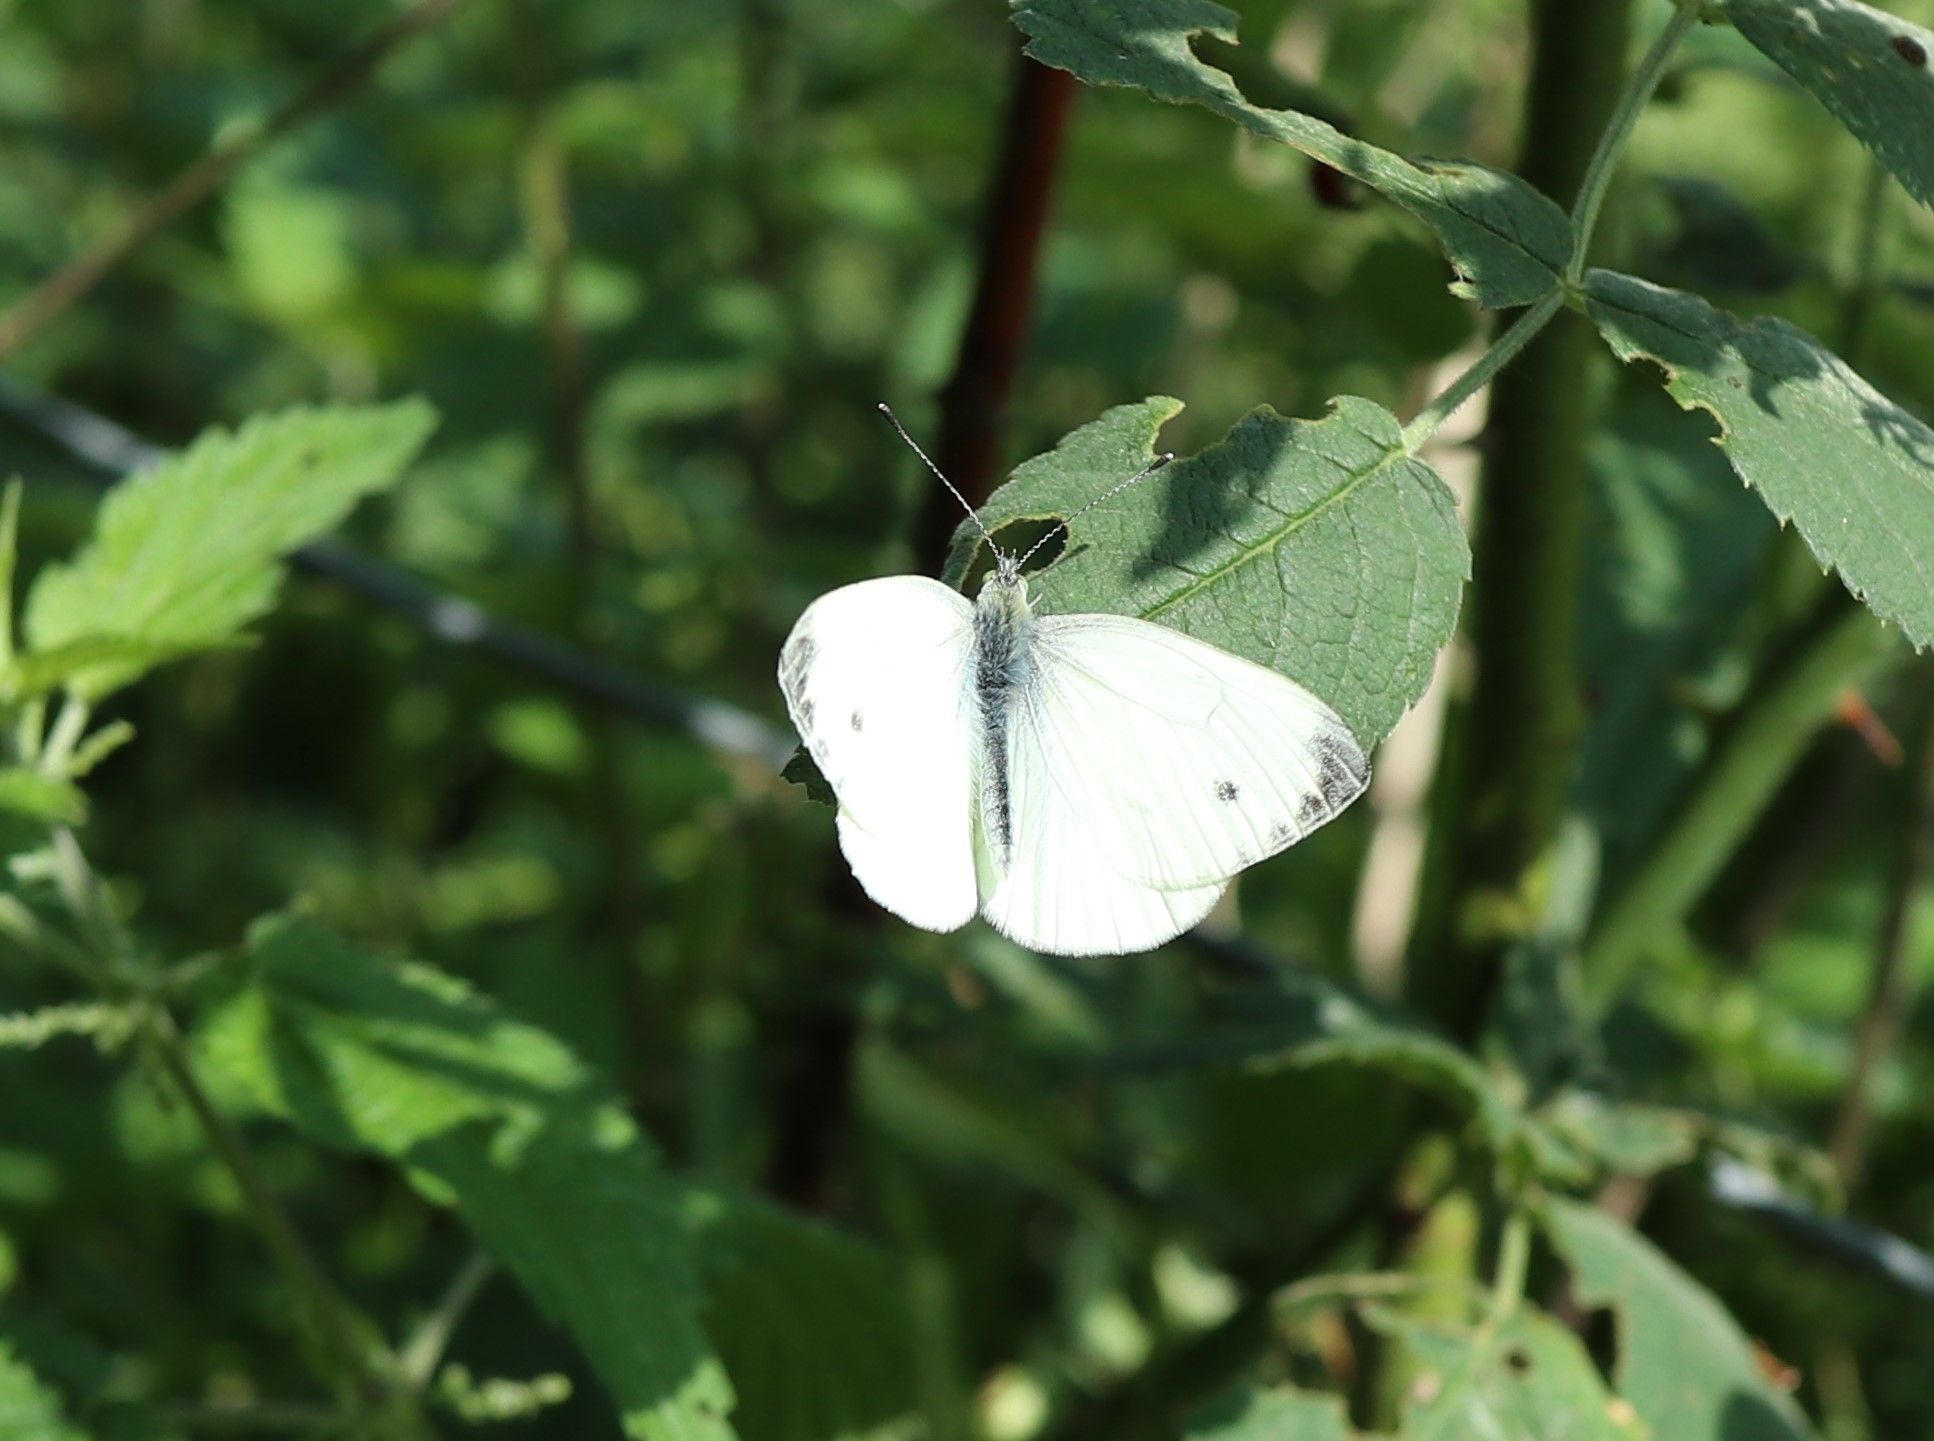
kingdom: Animalia
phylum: Arthropoda
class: Insecta
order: Lepidoptera
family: Pieridae
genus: Pieris
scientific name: Pieris napi
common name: Green-veined white
